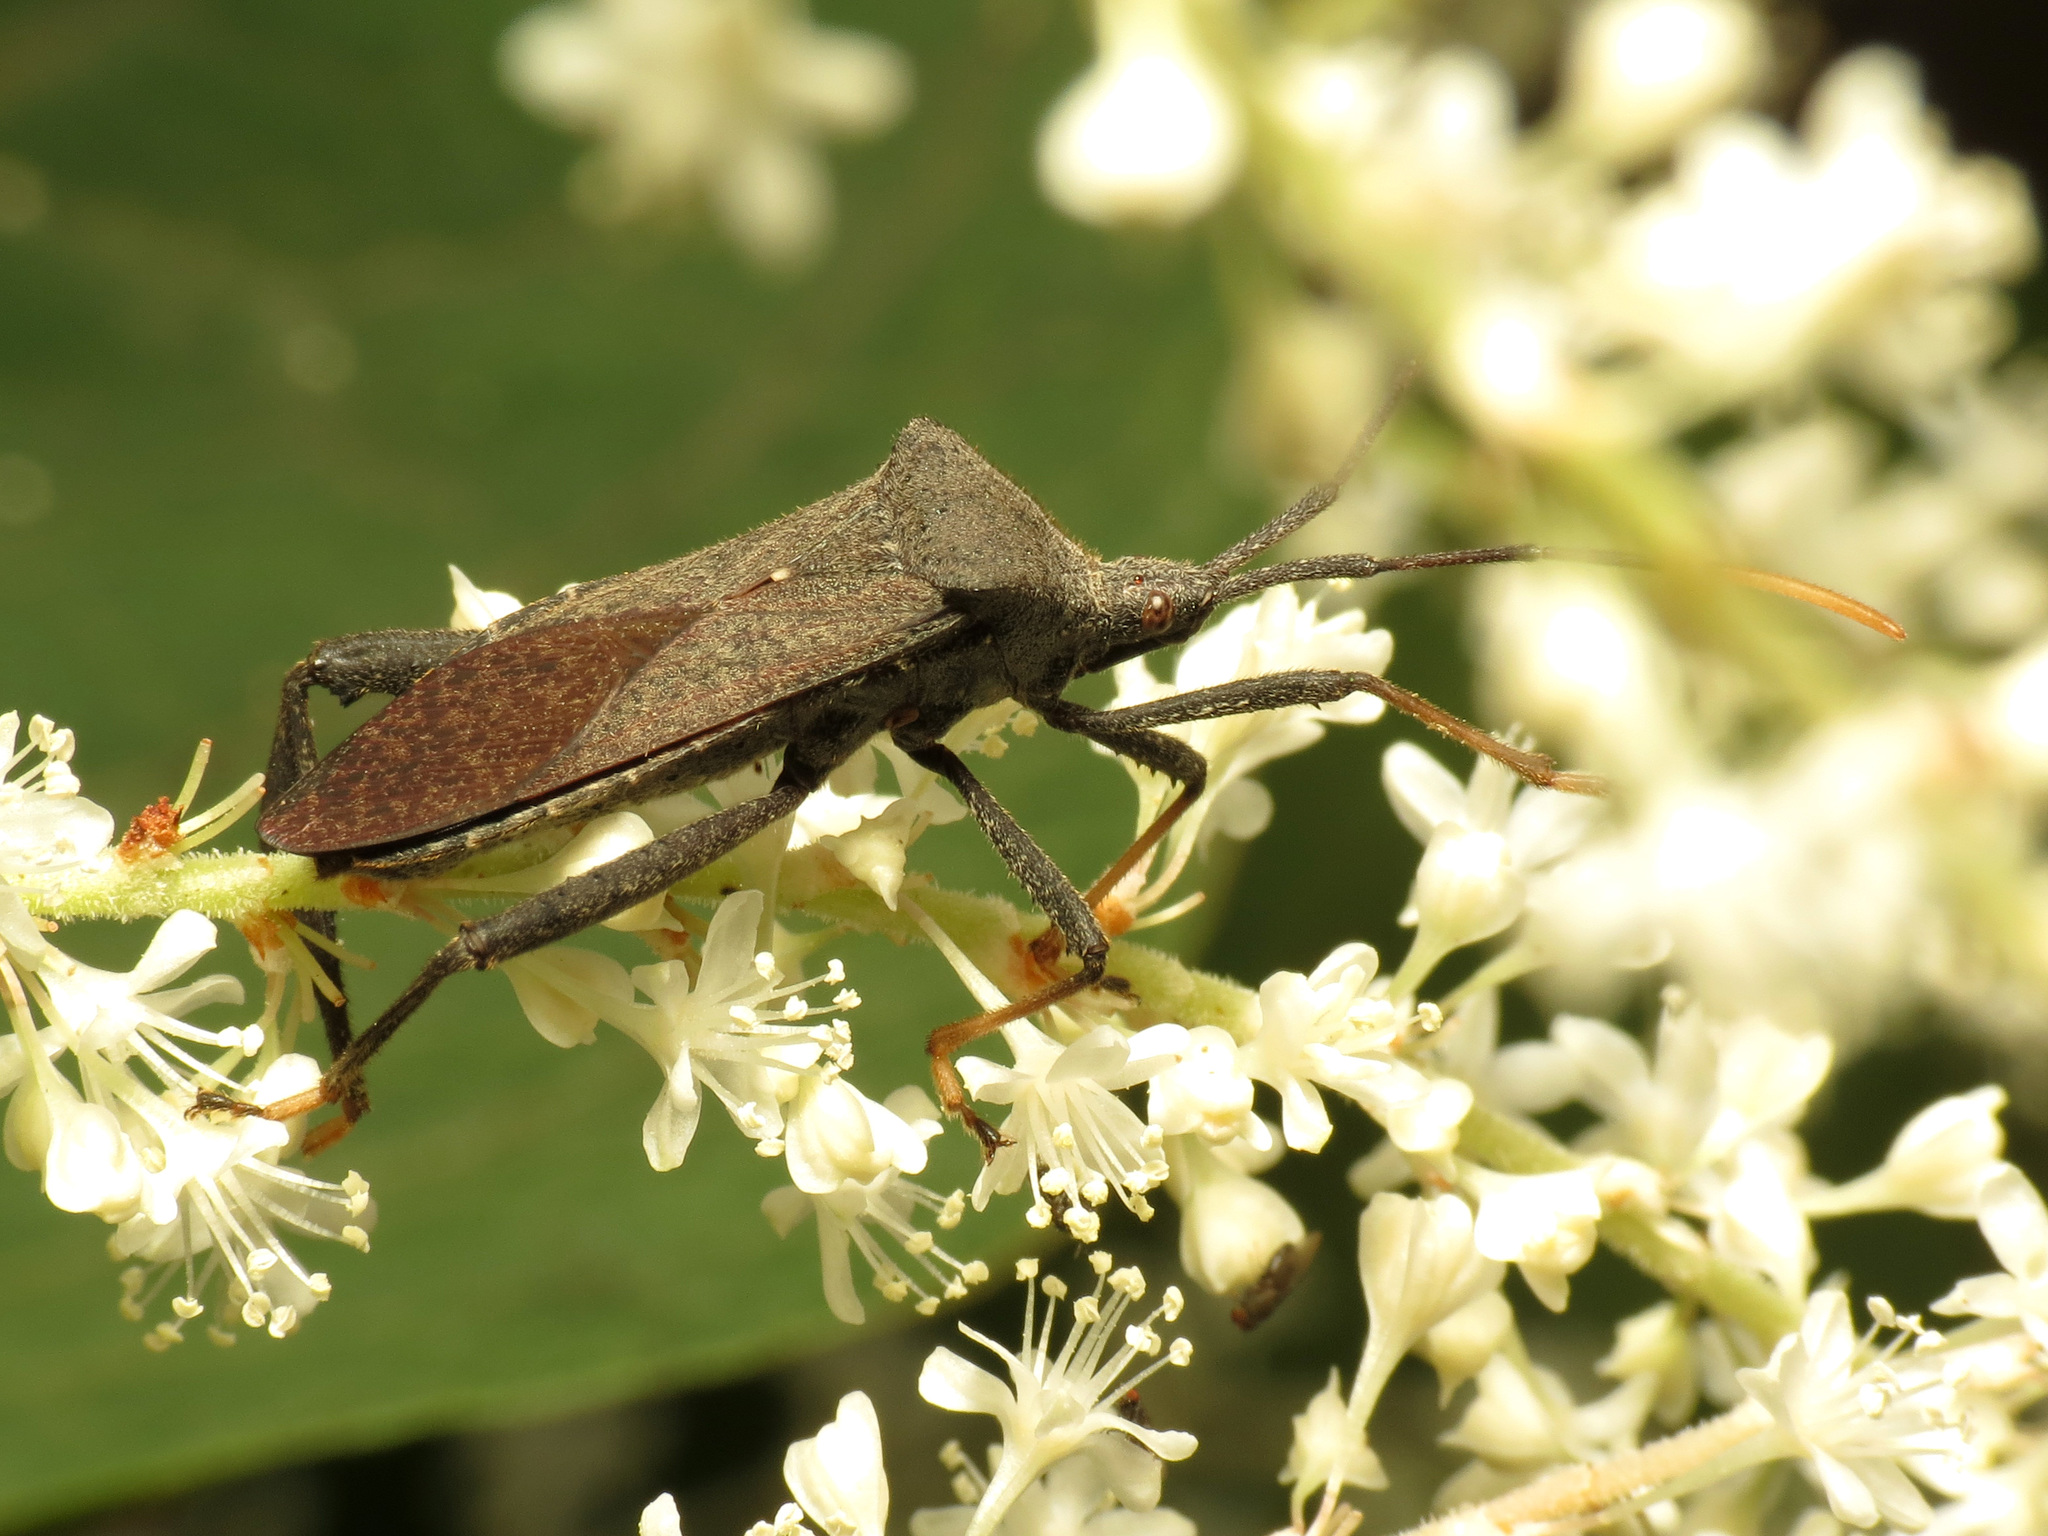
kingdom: Animalia
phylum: Arthropoda
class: Insecta
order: Hemiptera
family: Coreidae
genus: Acanthocephala
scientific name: Acanthocephala terminalis
